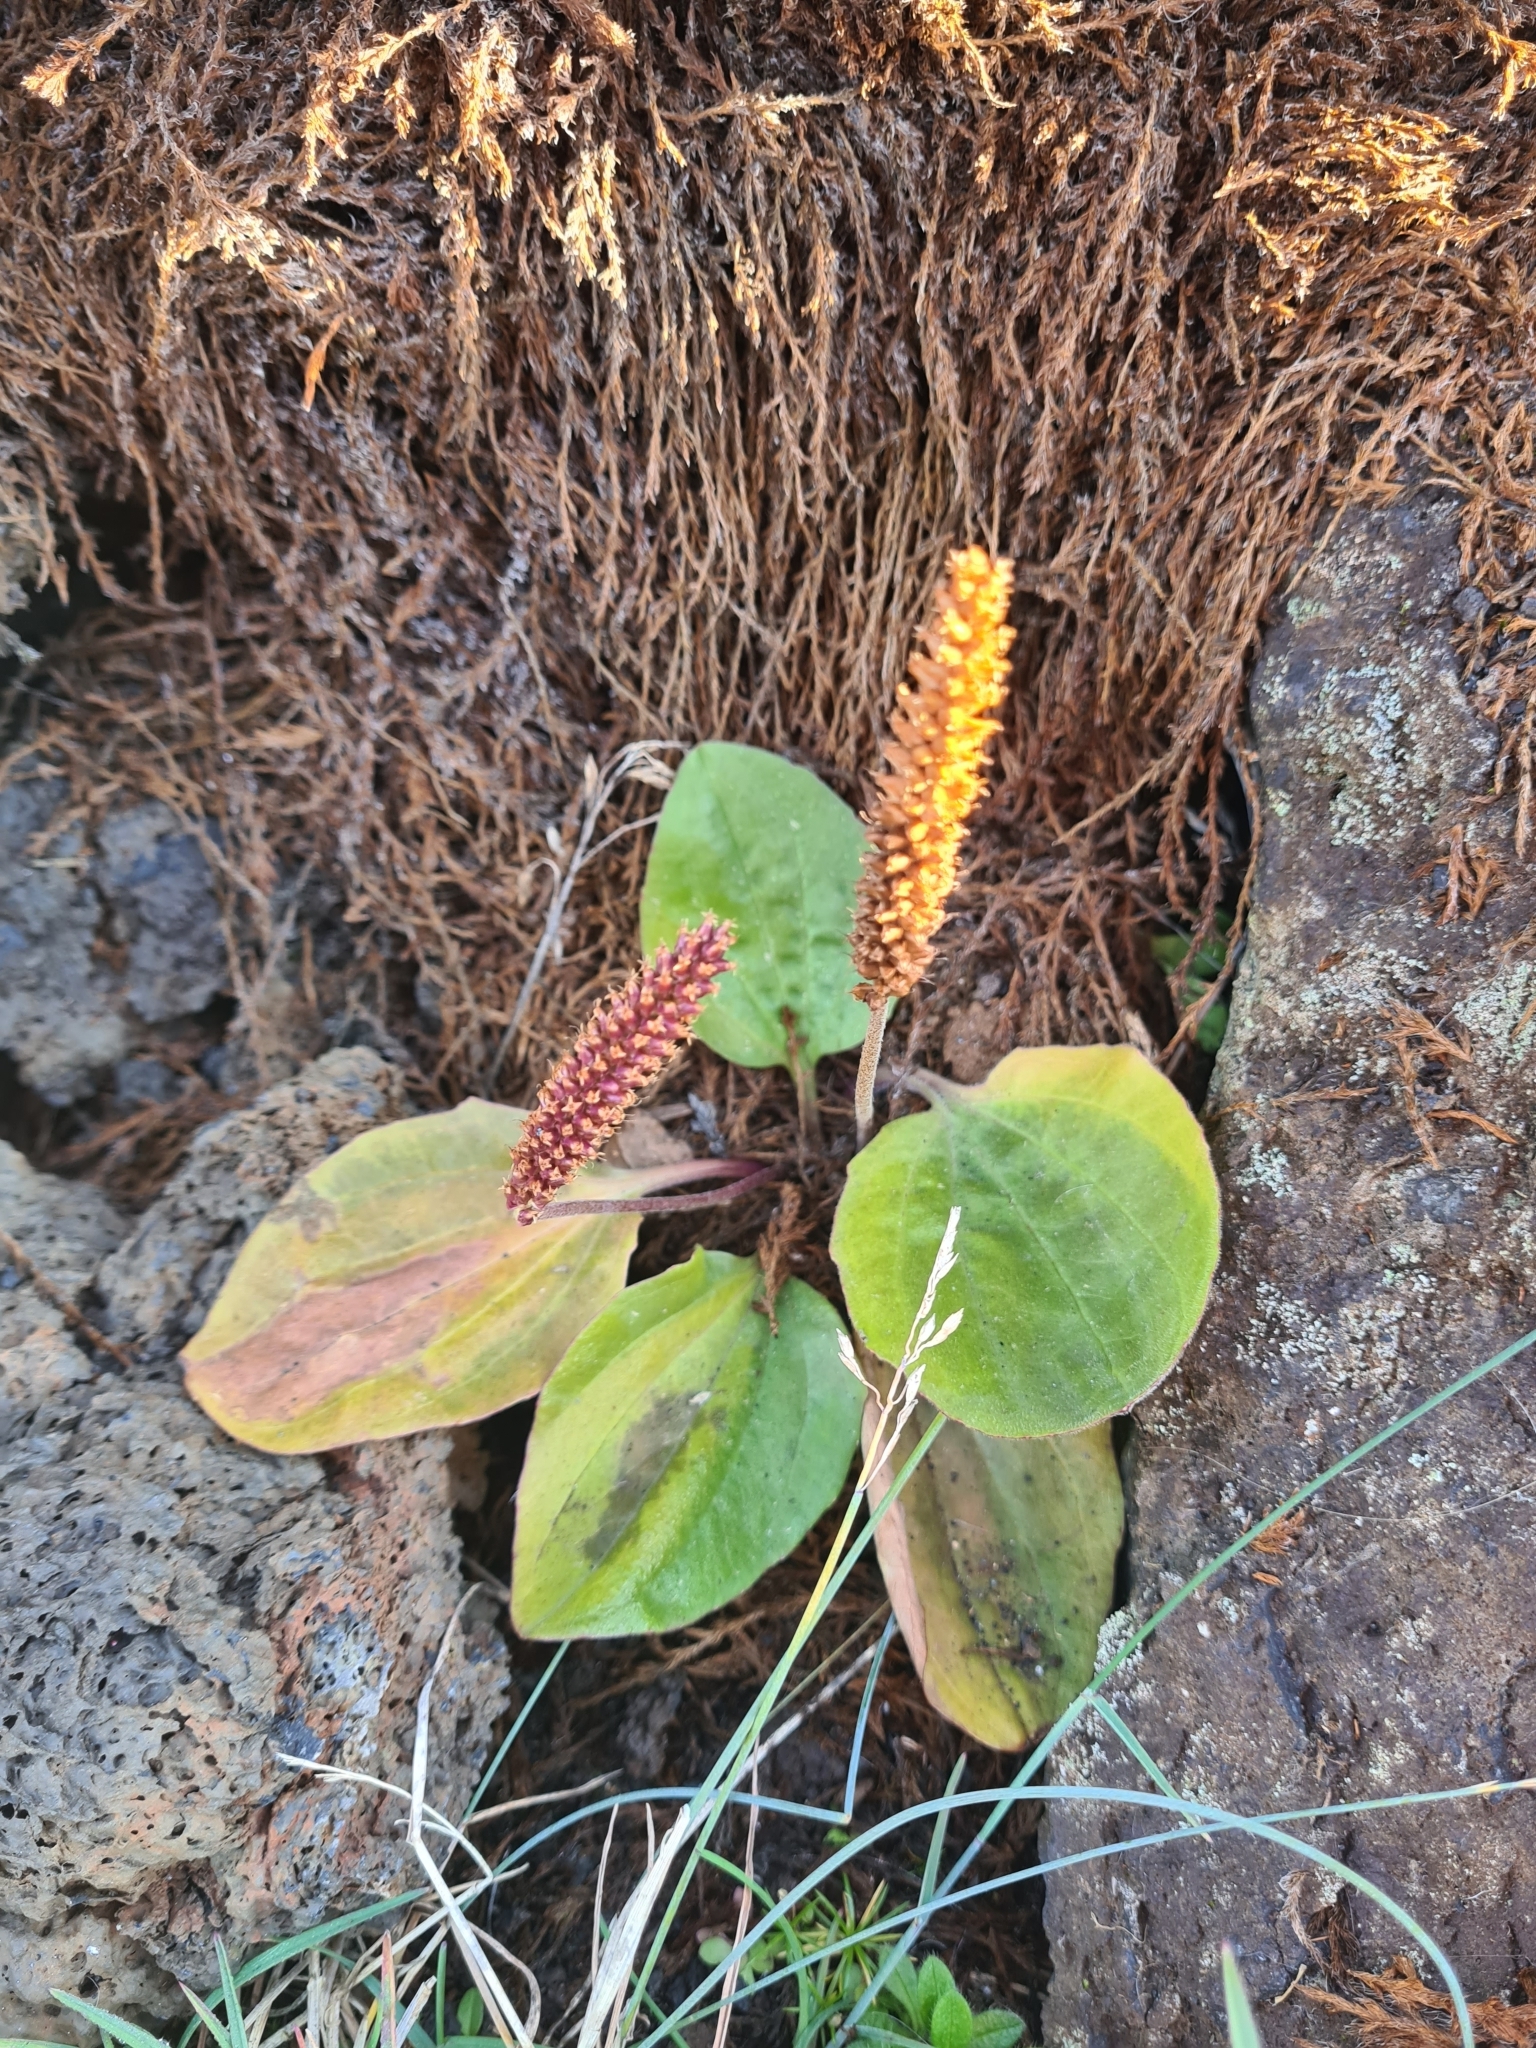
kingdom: Plantae
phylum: Tracheophyta
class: Magnoliopsida
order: Lamiales
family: Plantaginaceae
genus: Plantago
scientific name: Plantago major
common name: Common plantain
